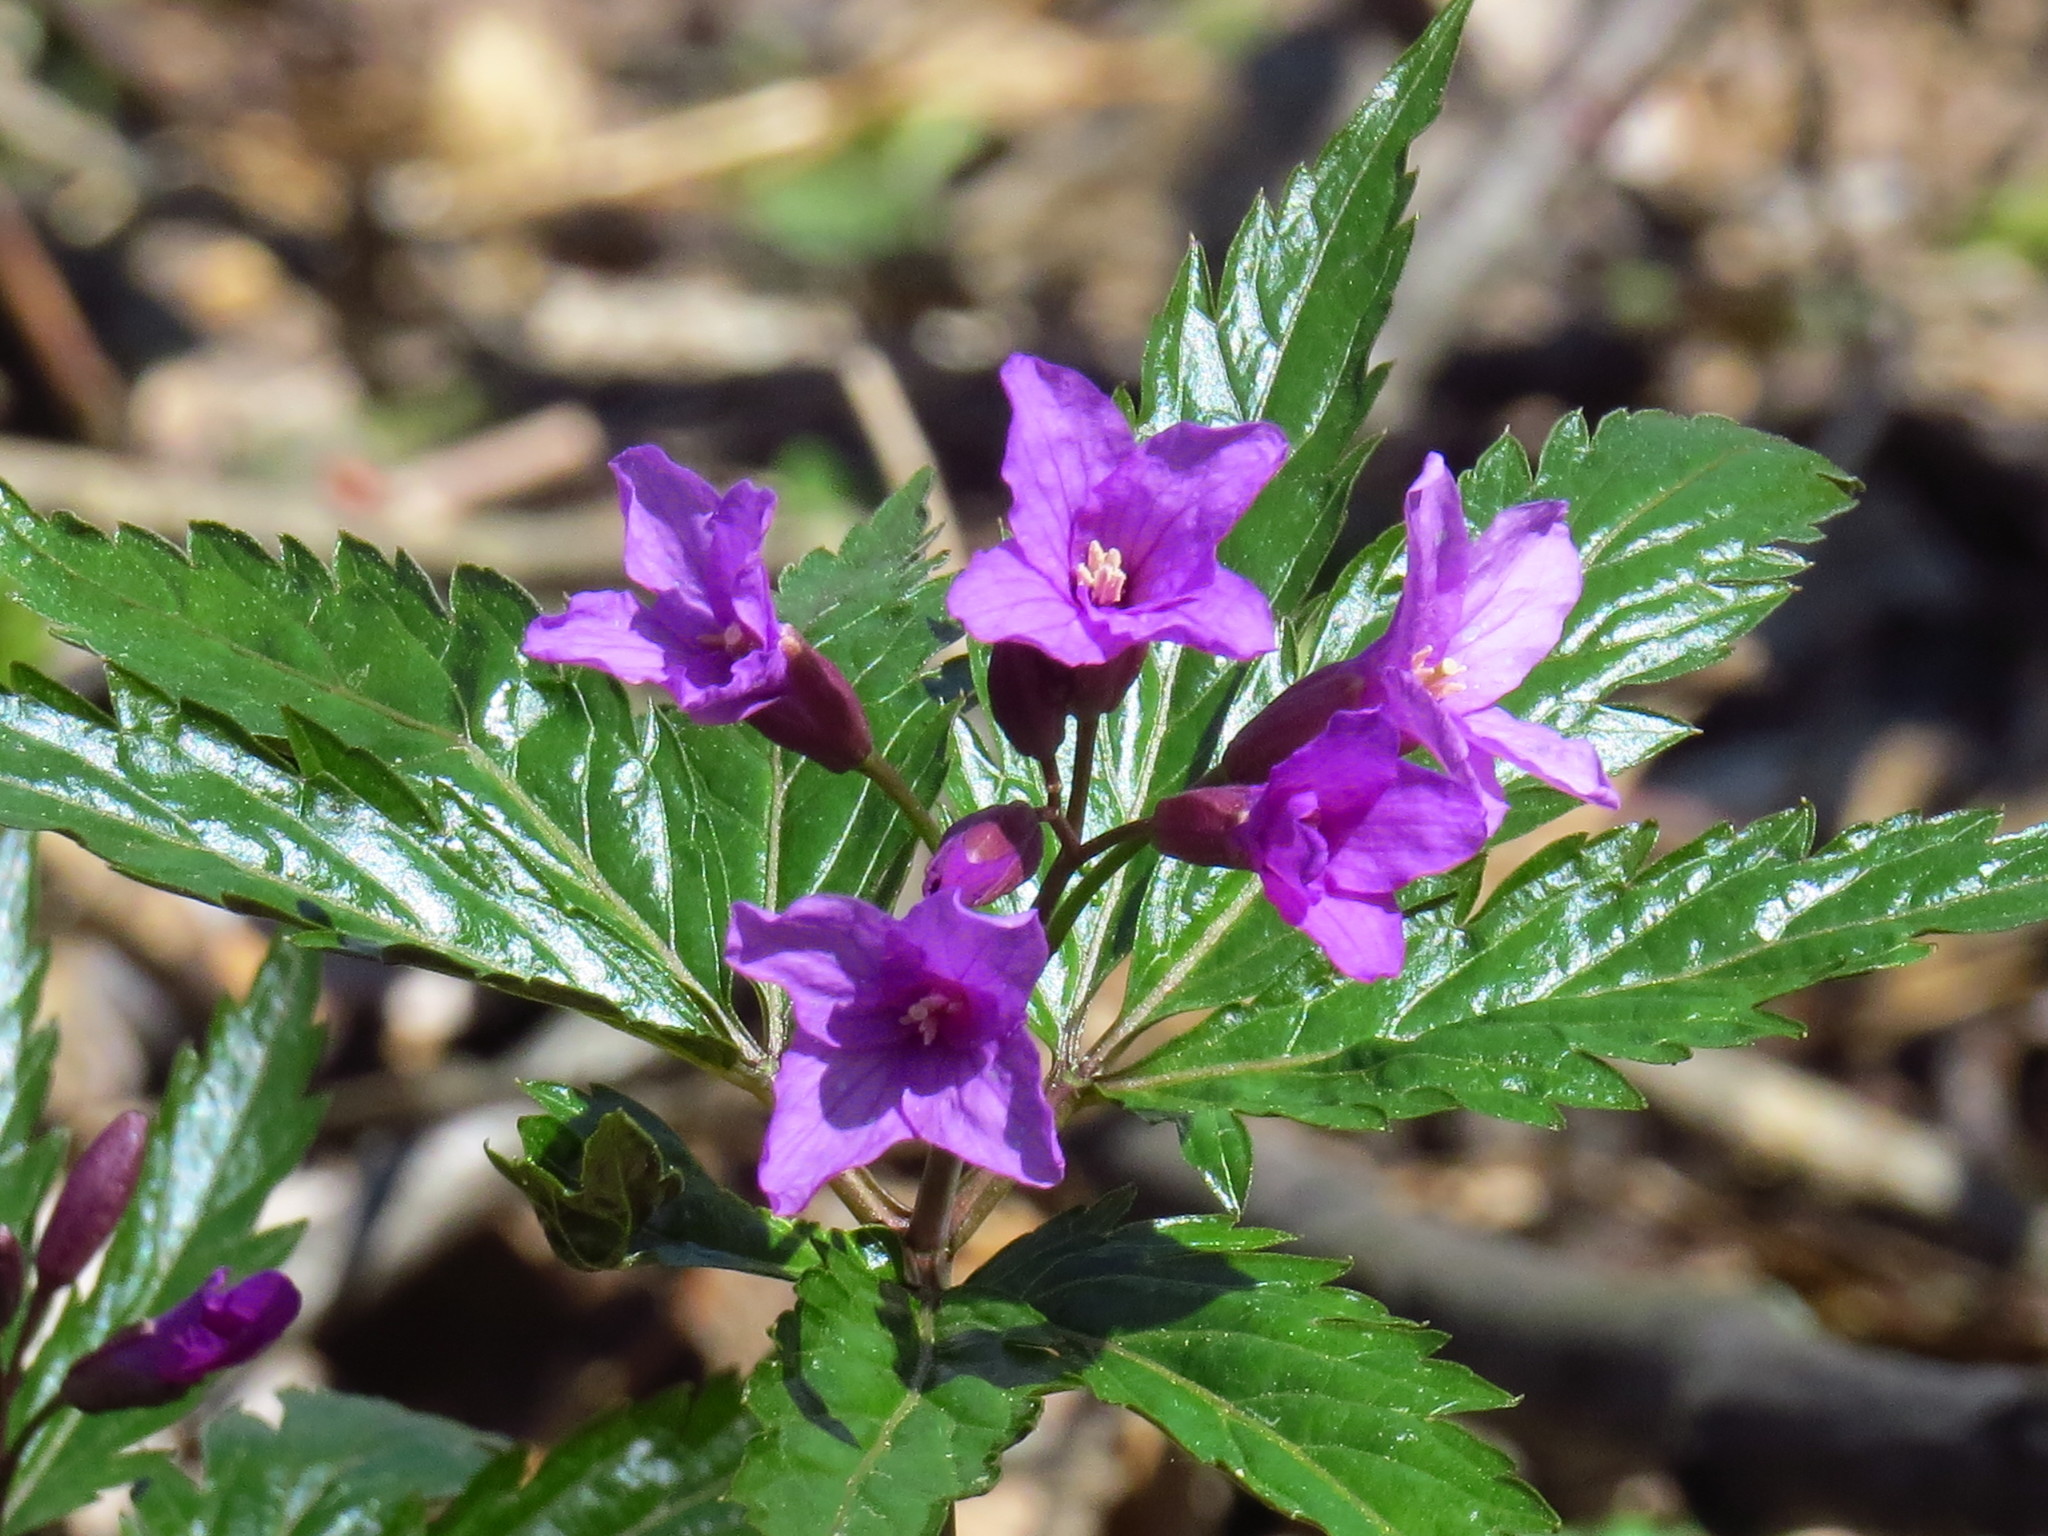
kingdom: Plantae
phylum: Tracheophyta
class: Magnoliopsida
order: Brassicales
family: Brassicaceae
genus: Cardamine
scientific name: Cardamine glanduligera
